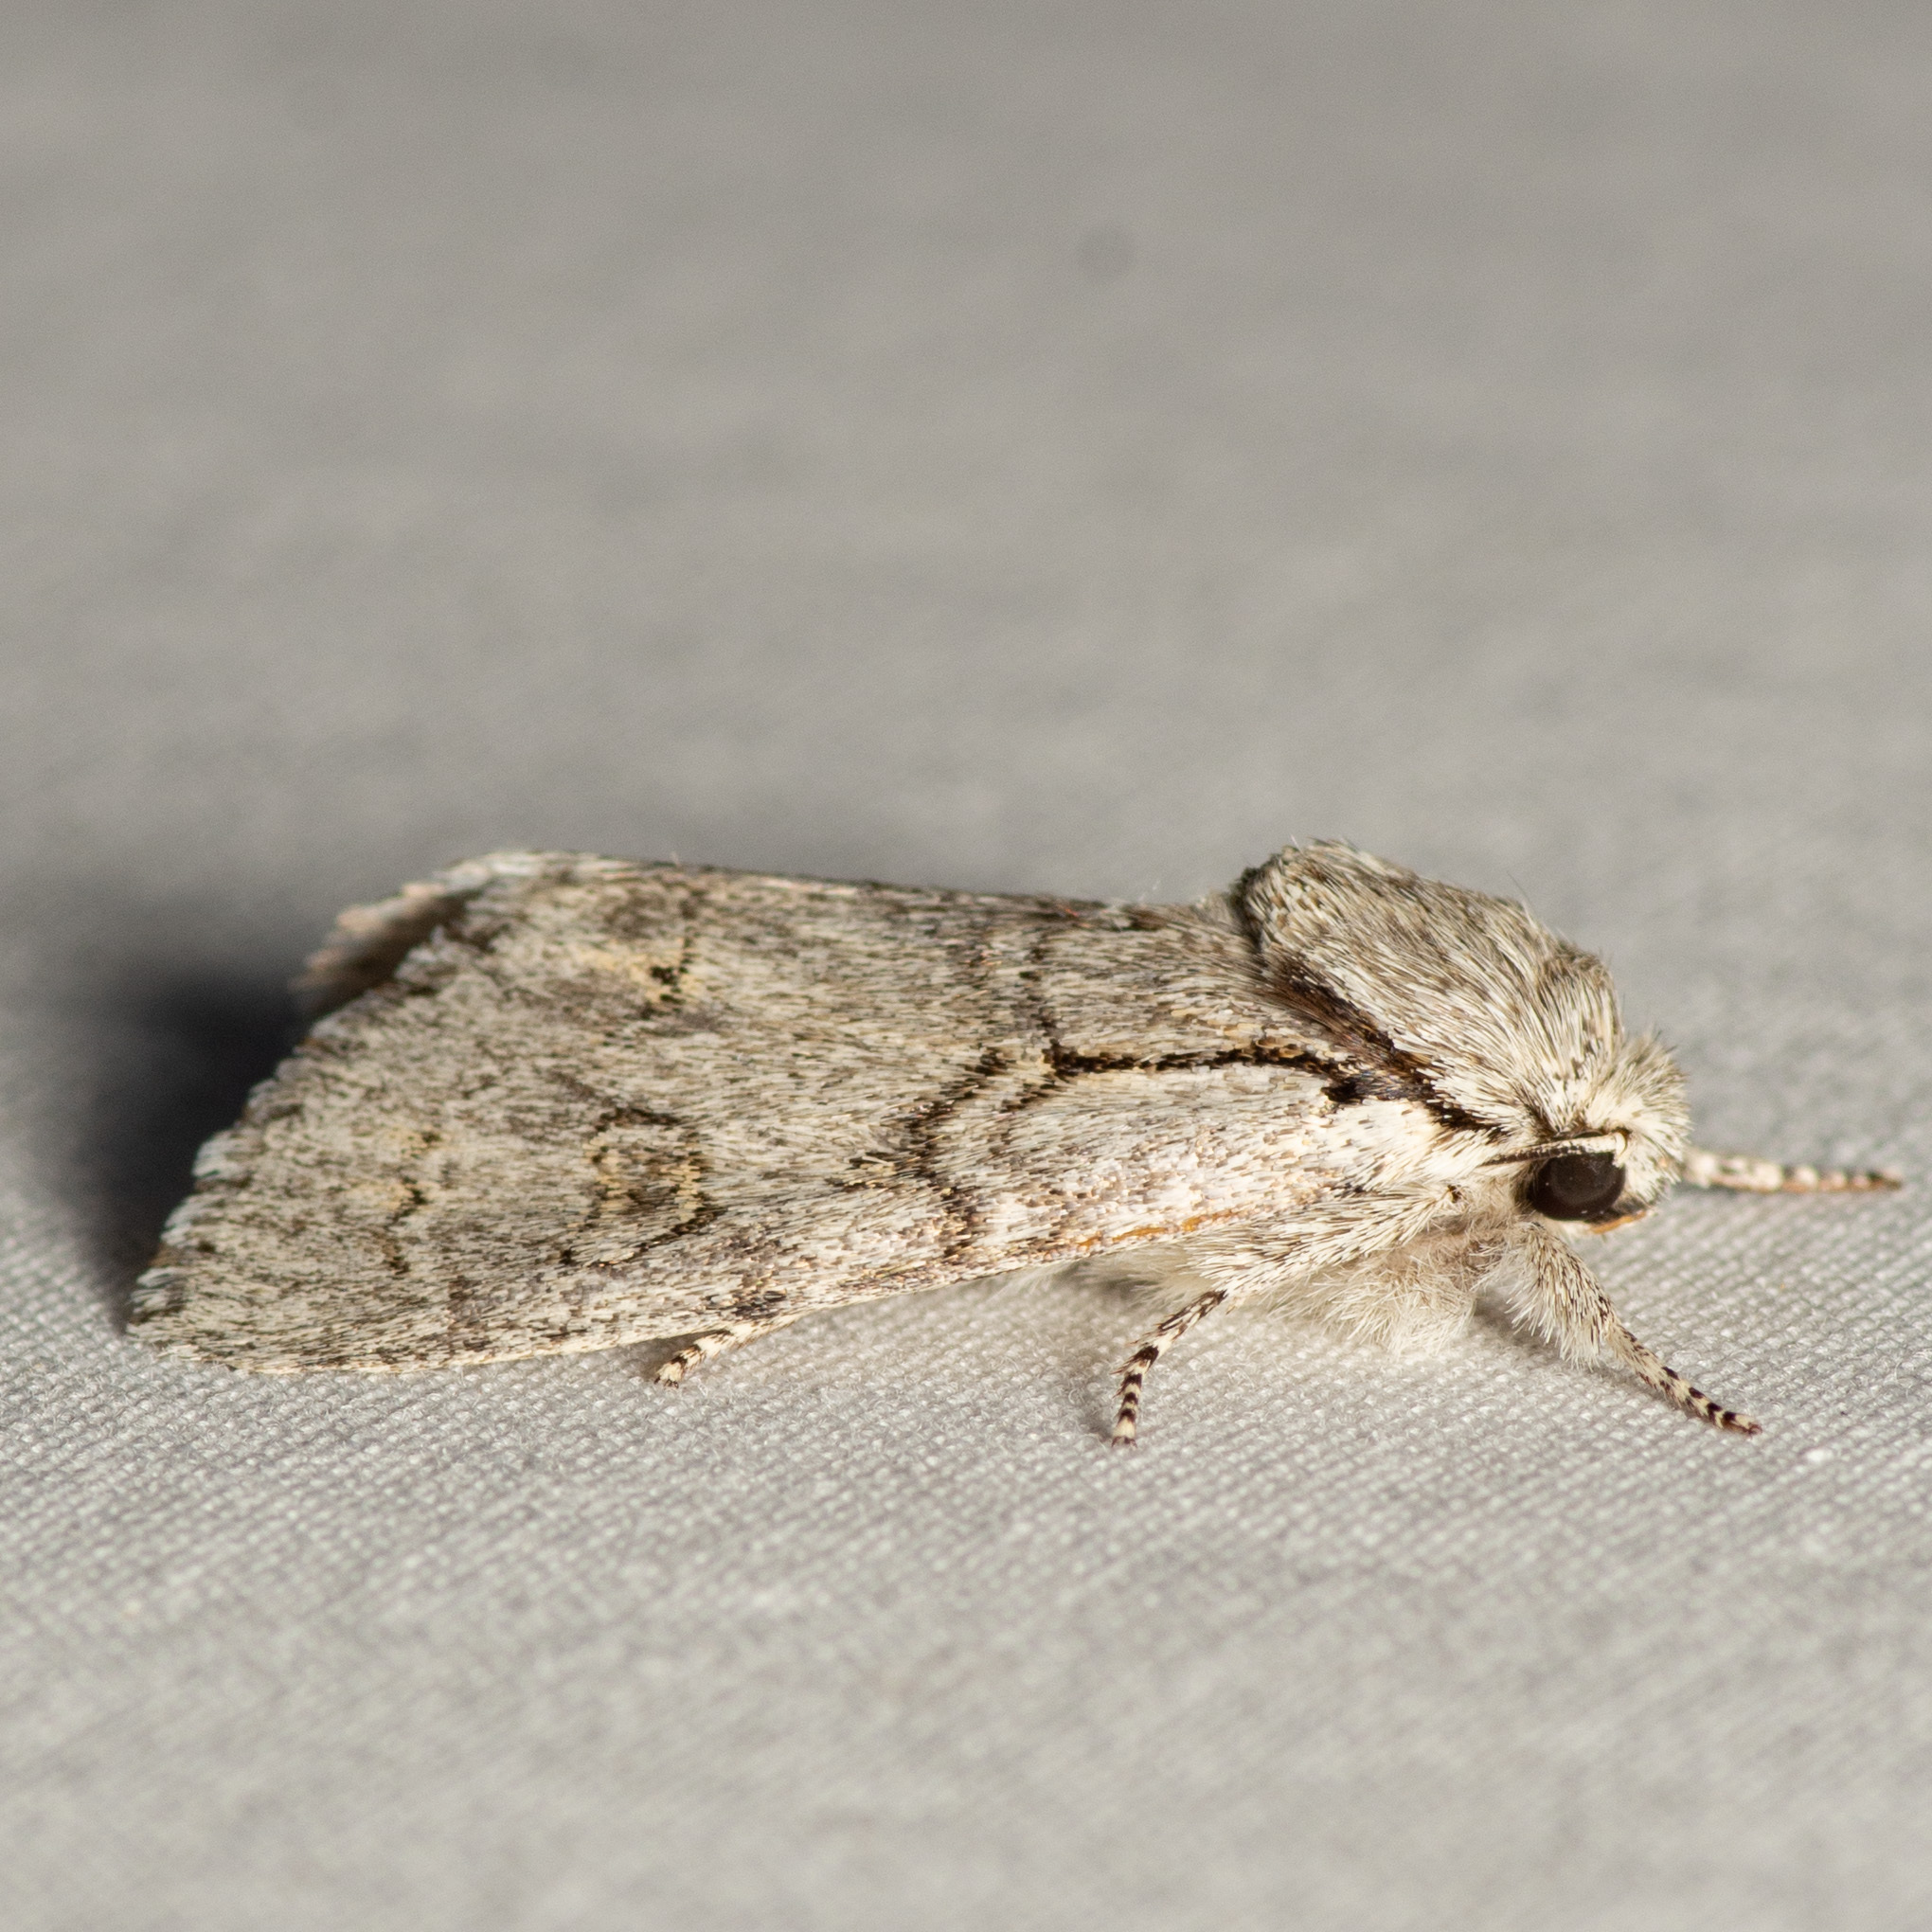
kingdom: Animalia
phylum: Arthropoda
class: Insecta
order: Lepidoptera
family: Noctuidae
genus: Acronicta
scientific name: Acronicta vinnula
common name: Delightful dagger
